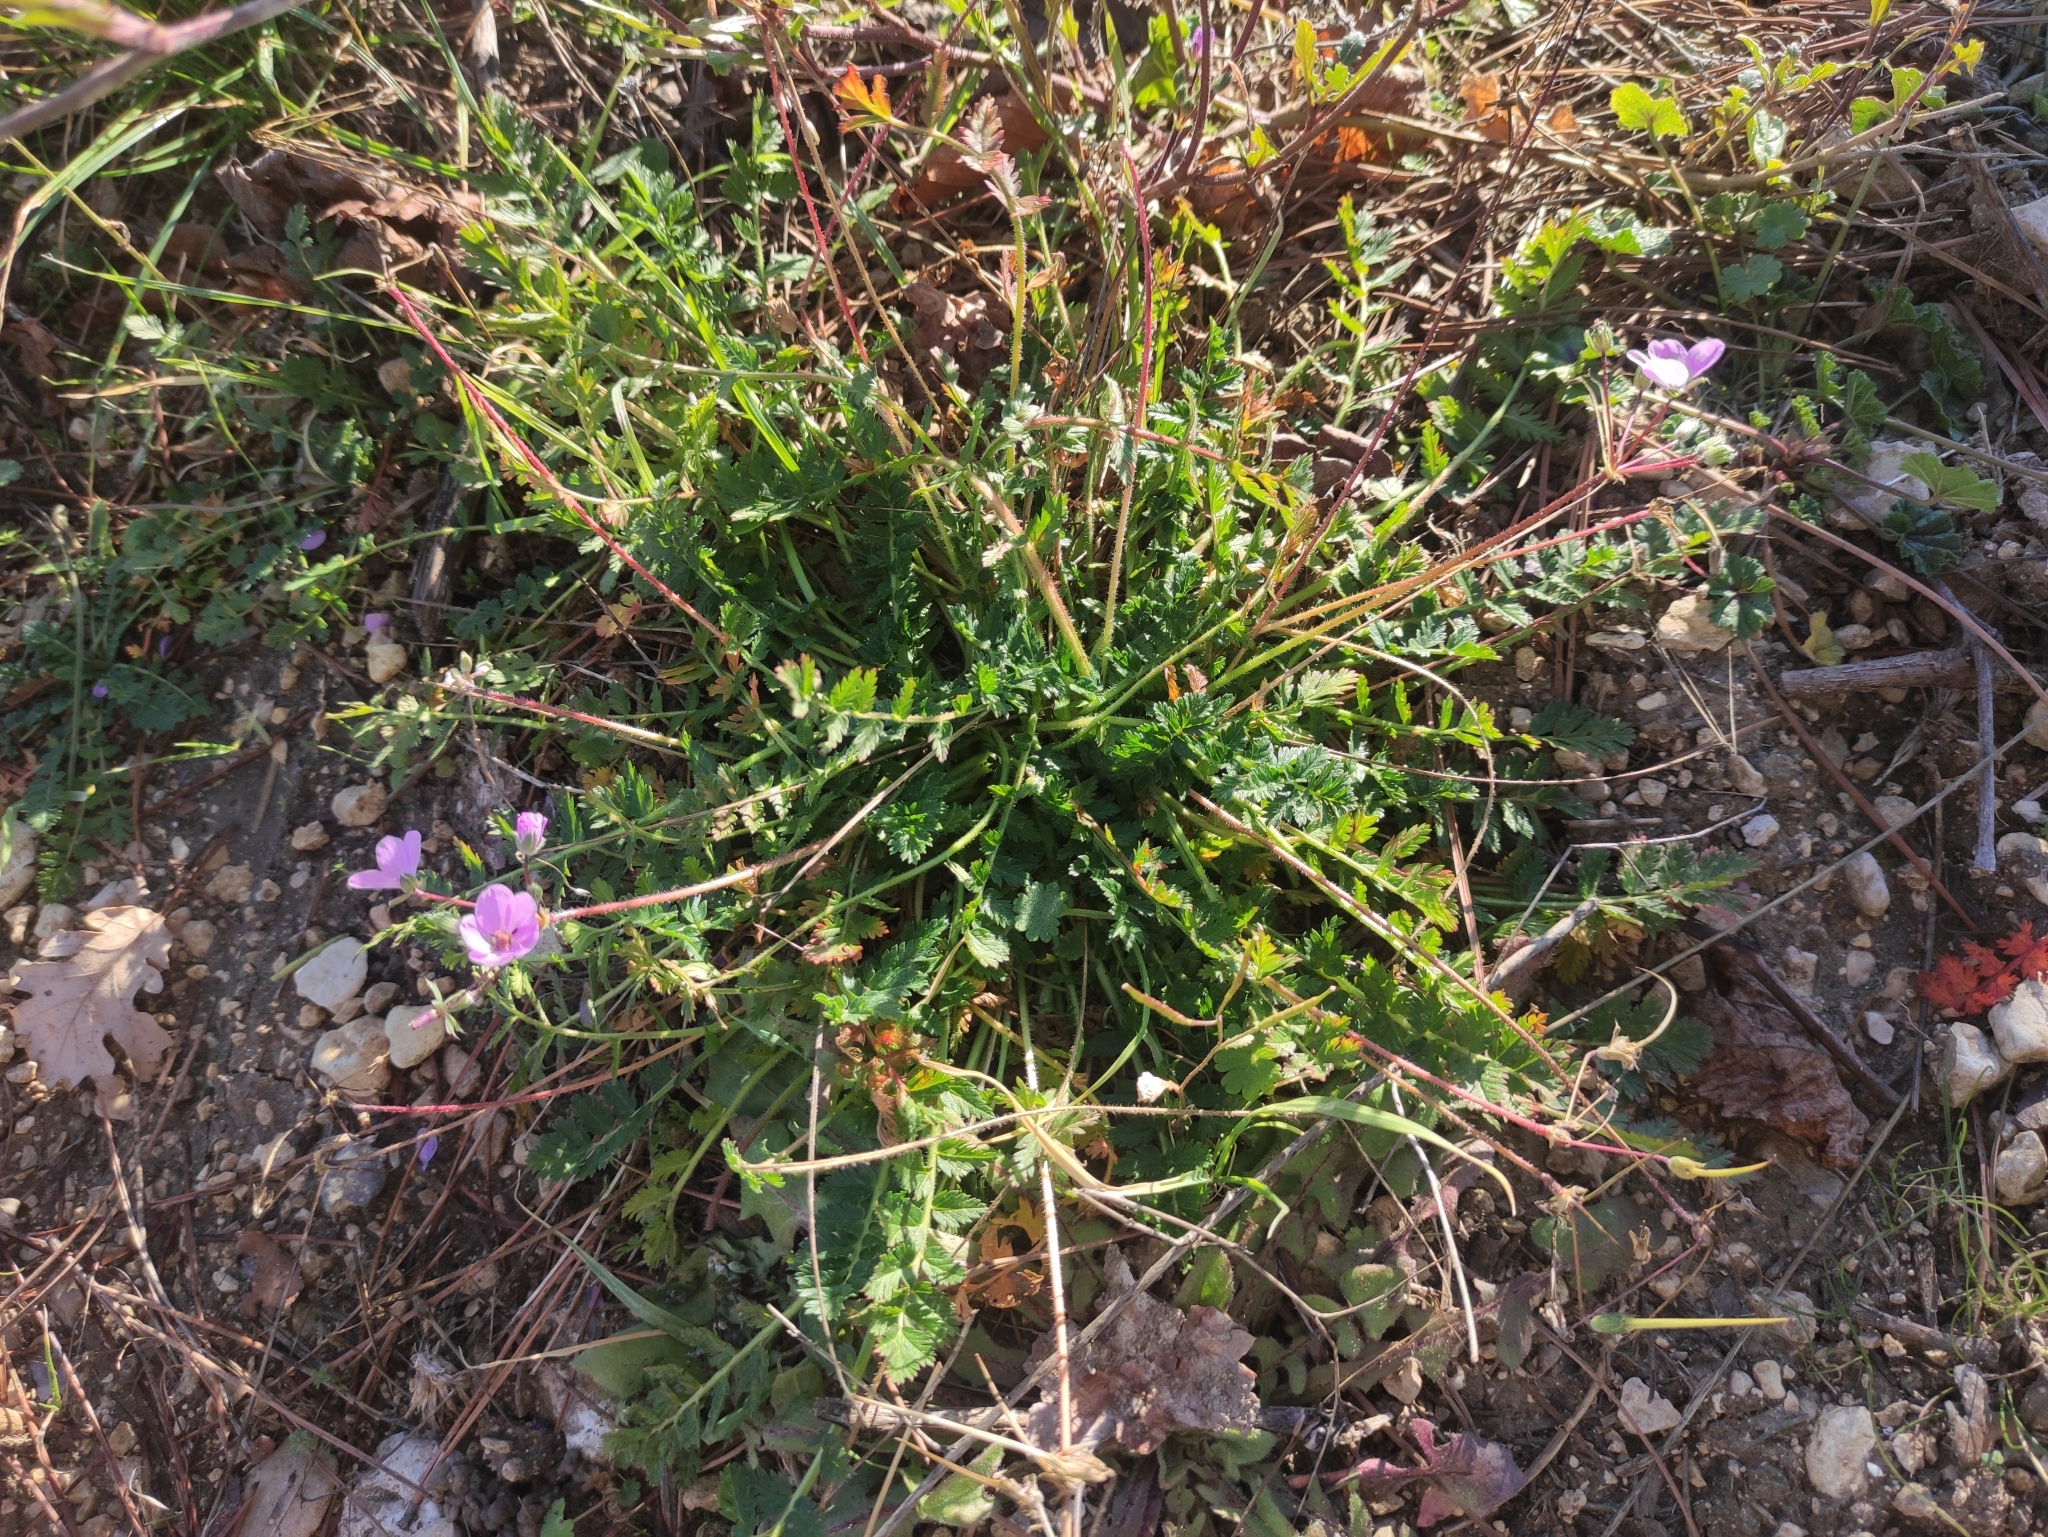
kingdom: Plantae
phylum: Tracheophyta
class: Magnoliopsida
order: Geraniales
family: Geraniaceae
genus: Erodium
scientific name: Erodium acaule
